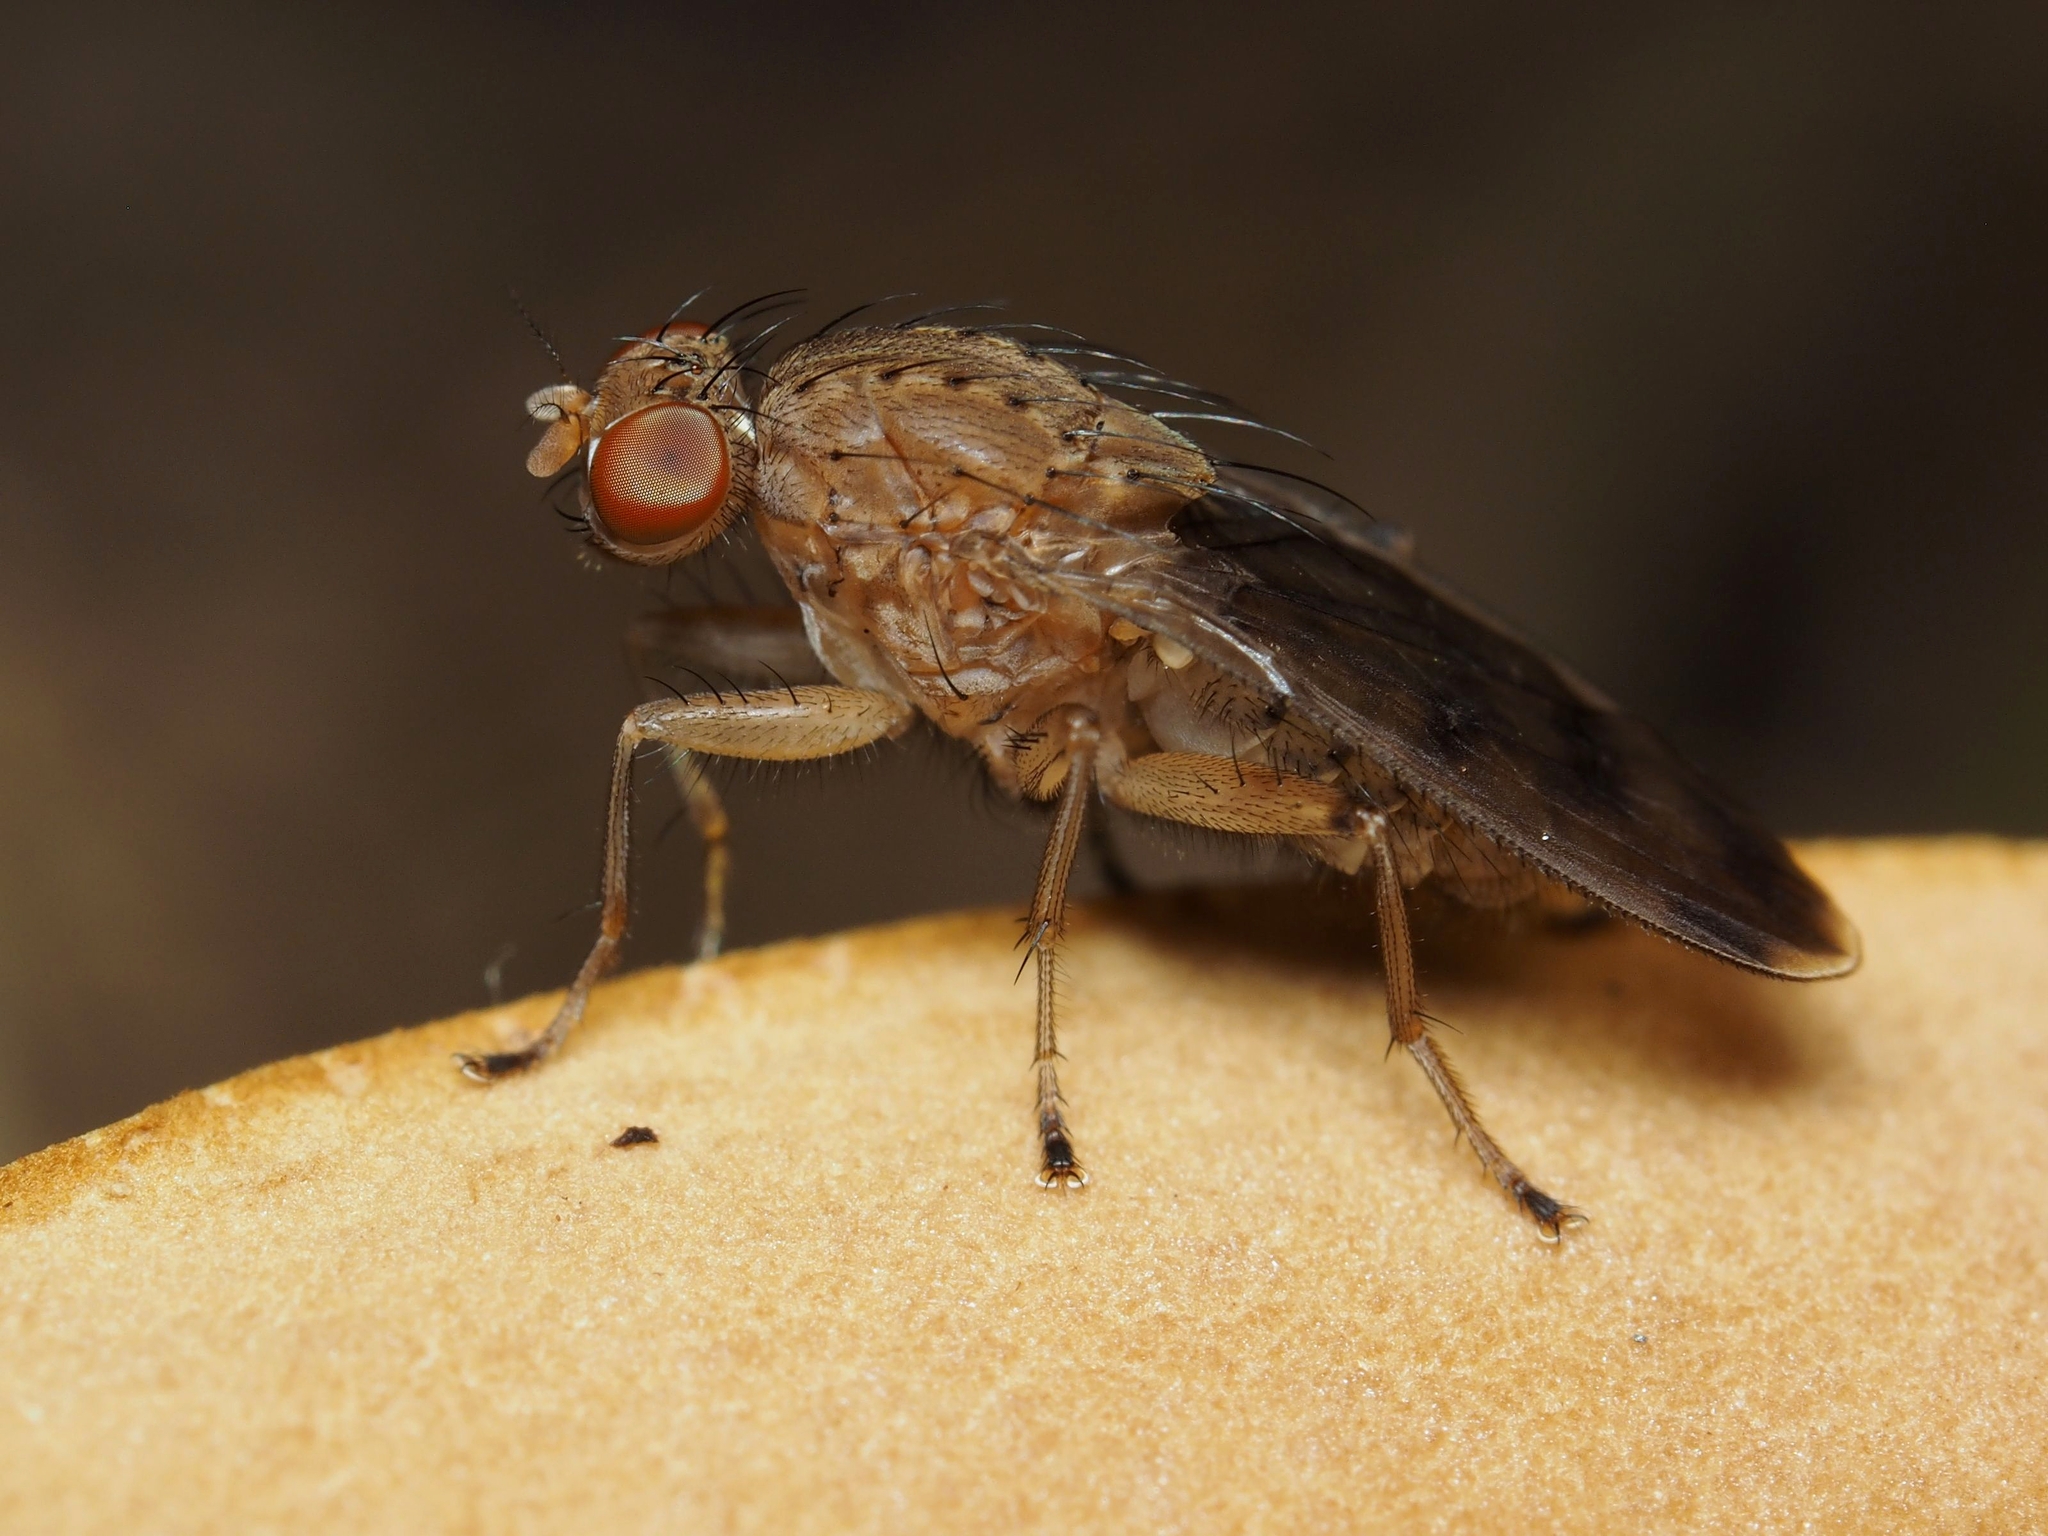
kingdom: Animalia
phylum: Arthropoda
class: Insecta
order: Diptera
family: Heleomyzidae
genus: Suillia
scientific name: Suillia variegata
